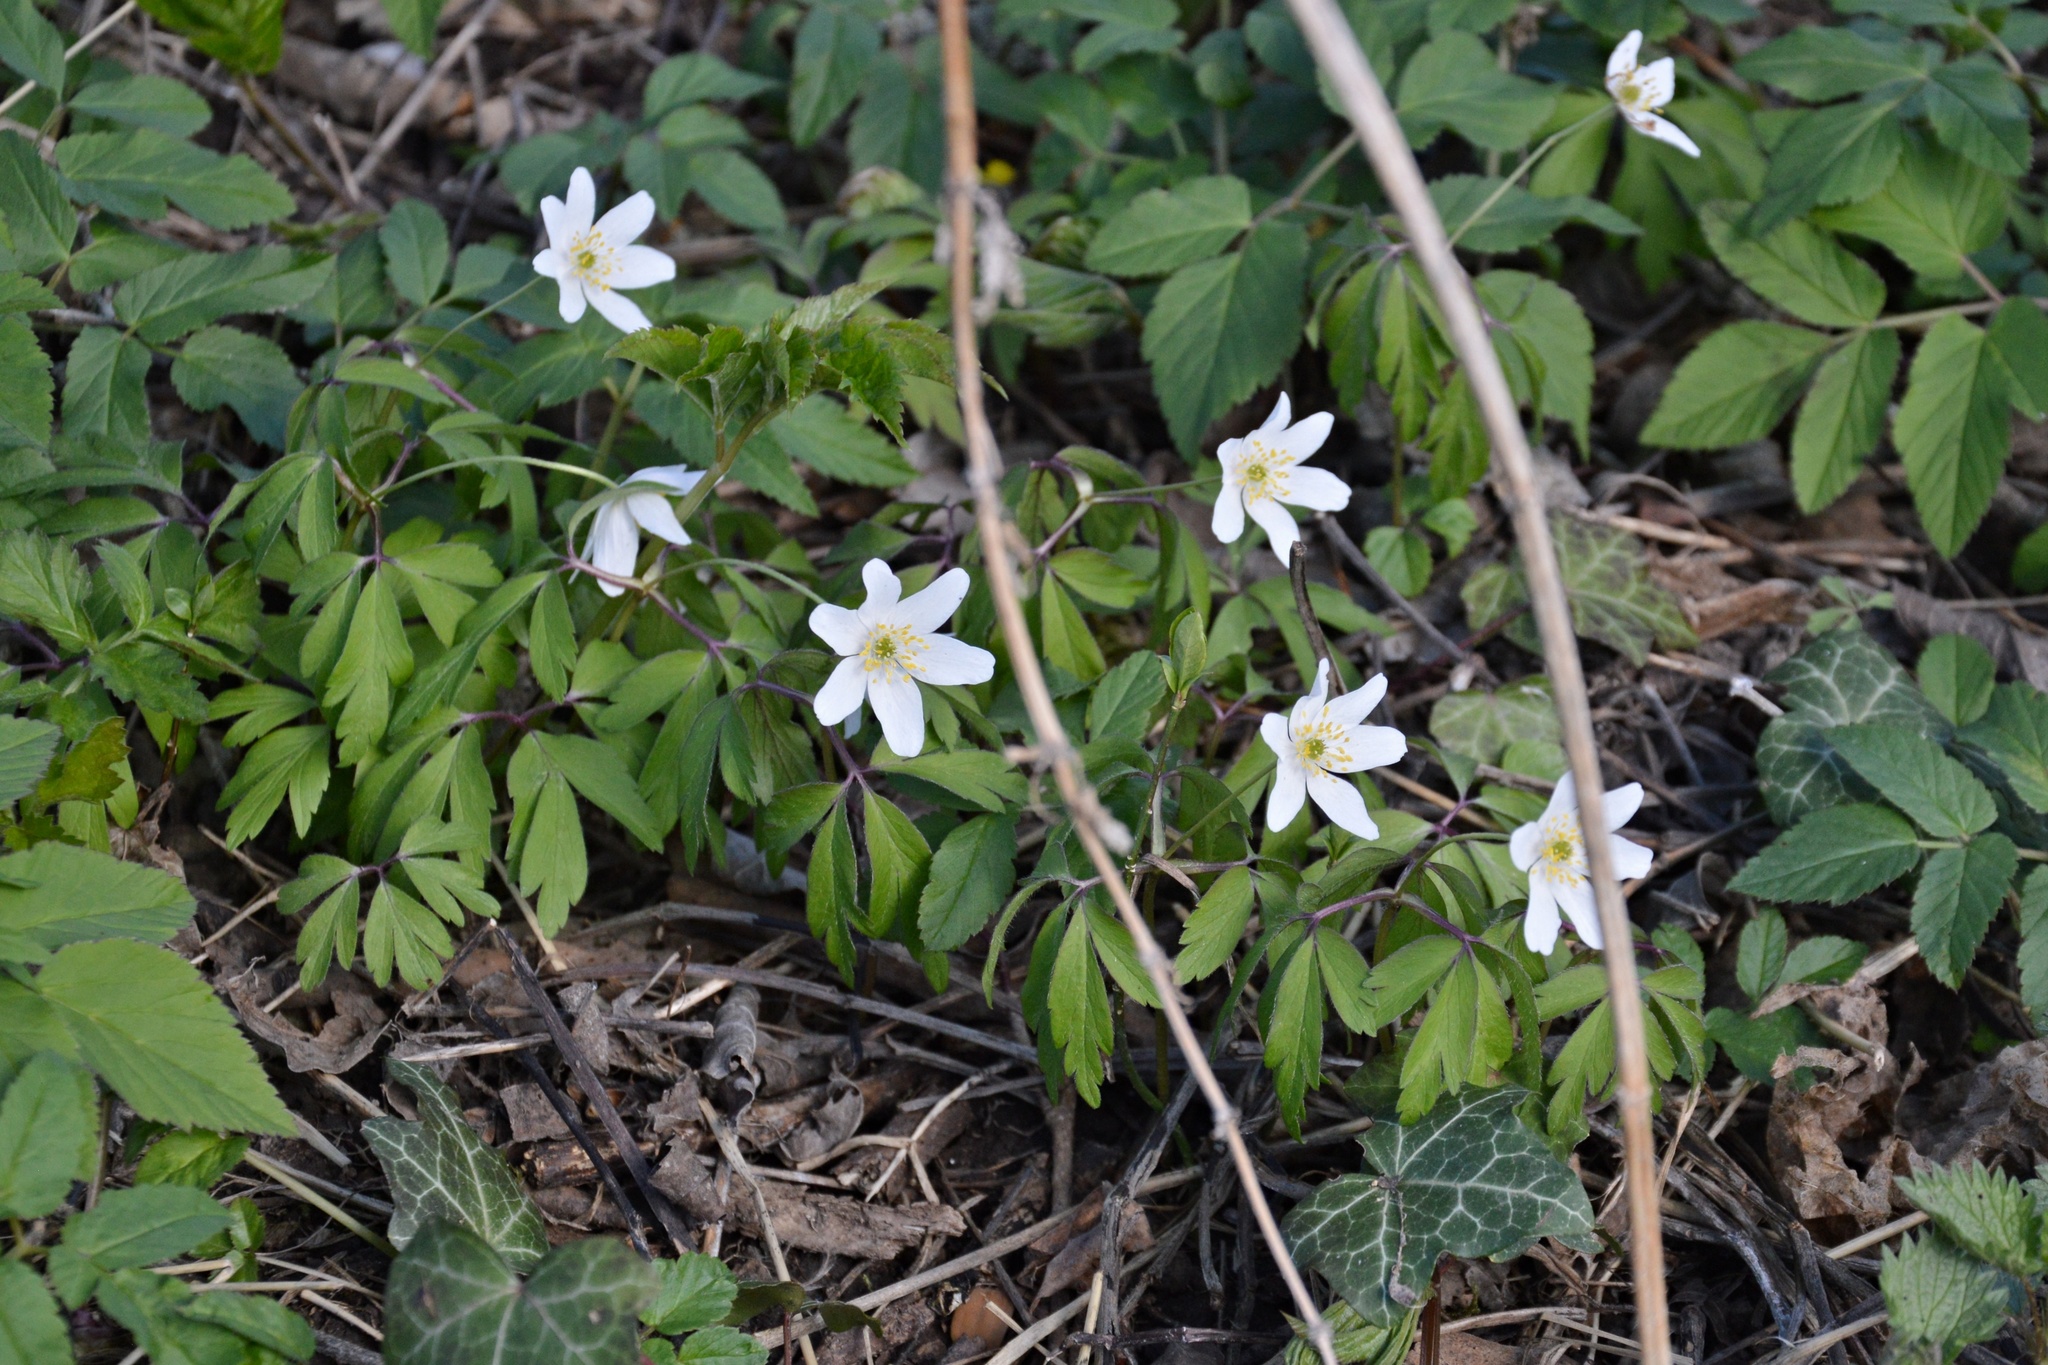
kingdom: Plantae
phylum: Tracheophyta
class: Magnoliopsida
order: Ranunculales
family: Ranunculaceae
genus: Anemone
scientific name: Anemone nemorosa
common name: Wood anemone
